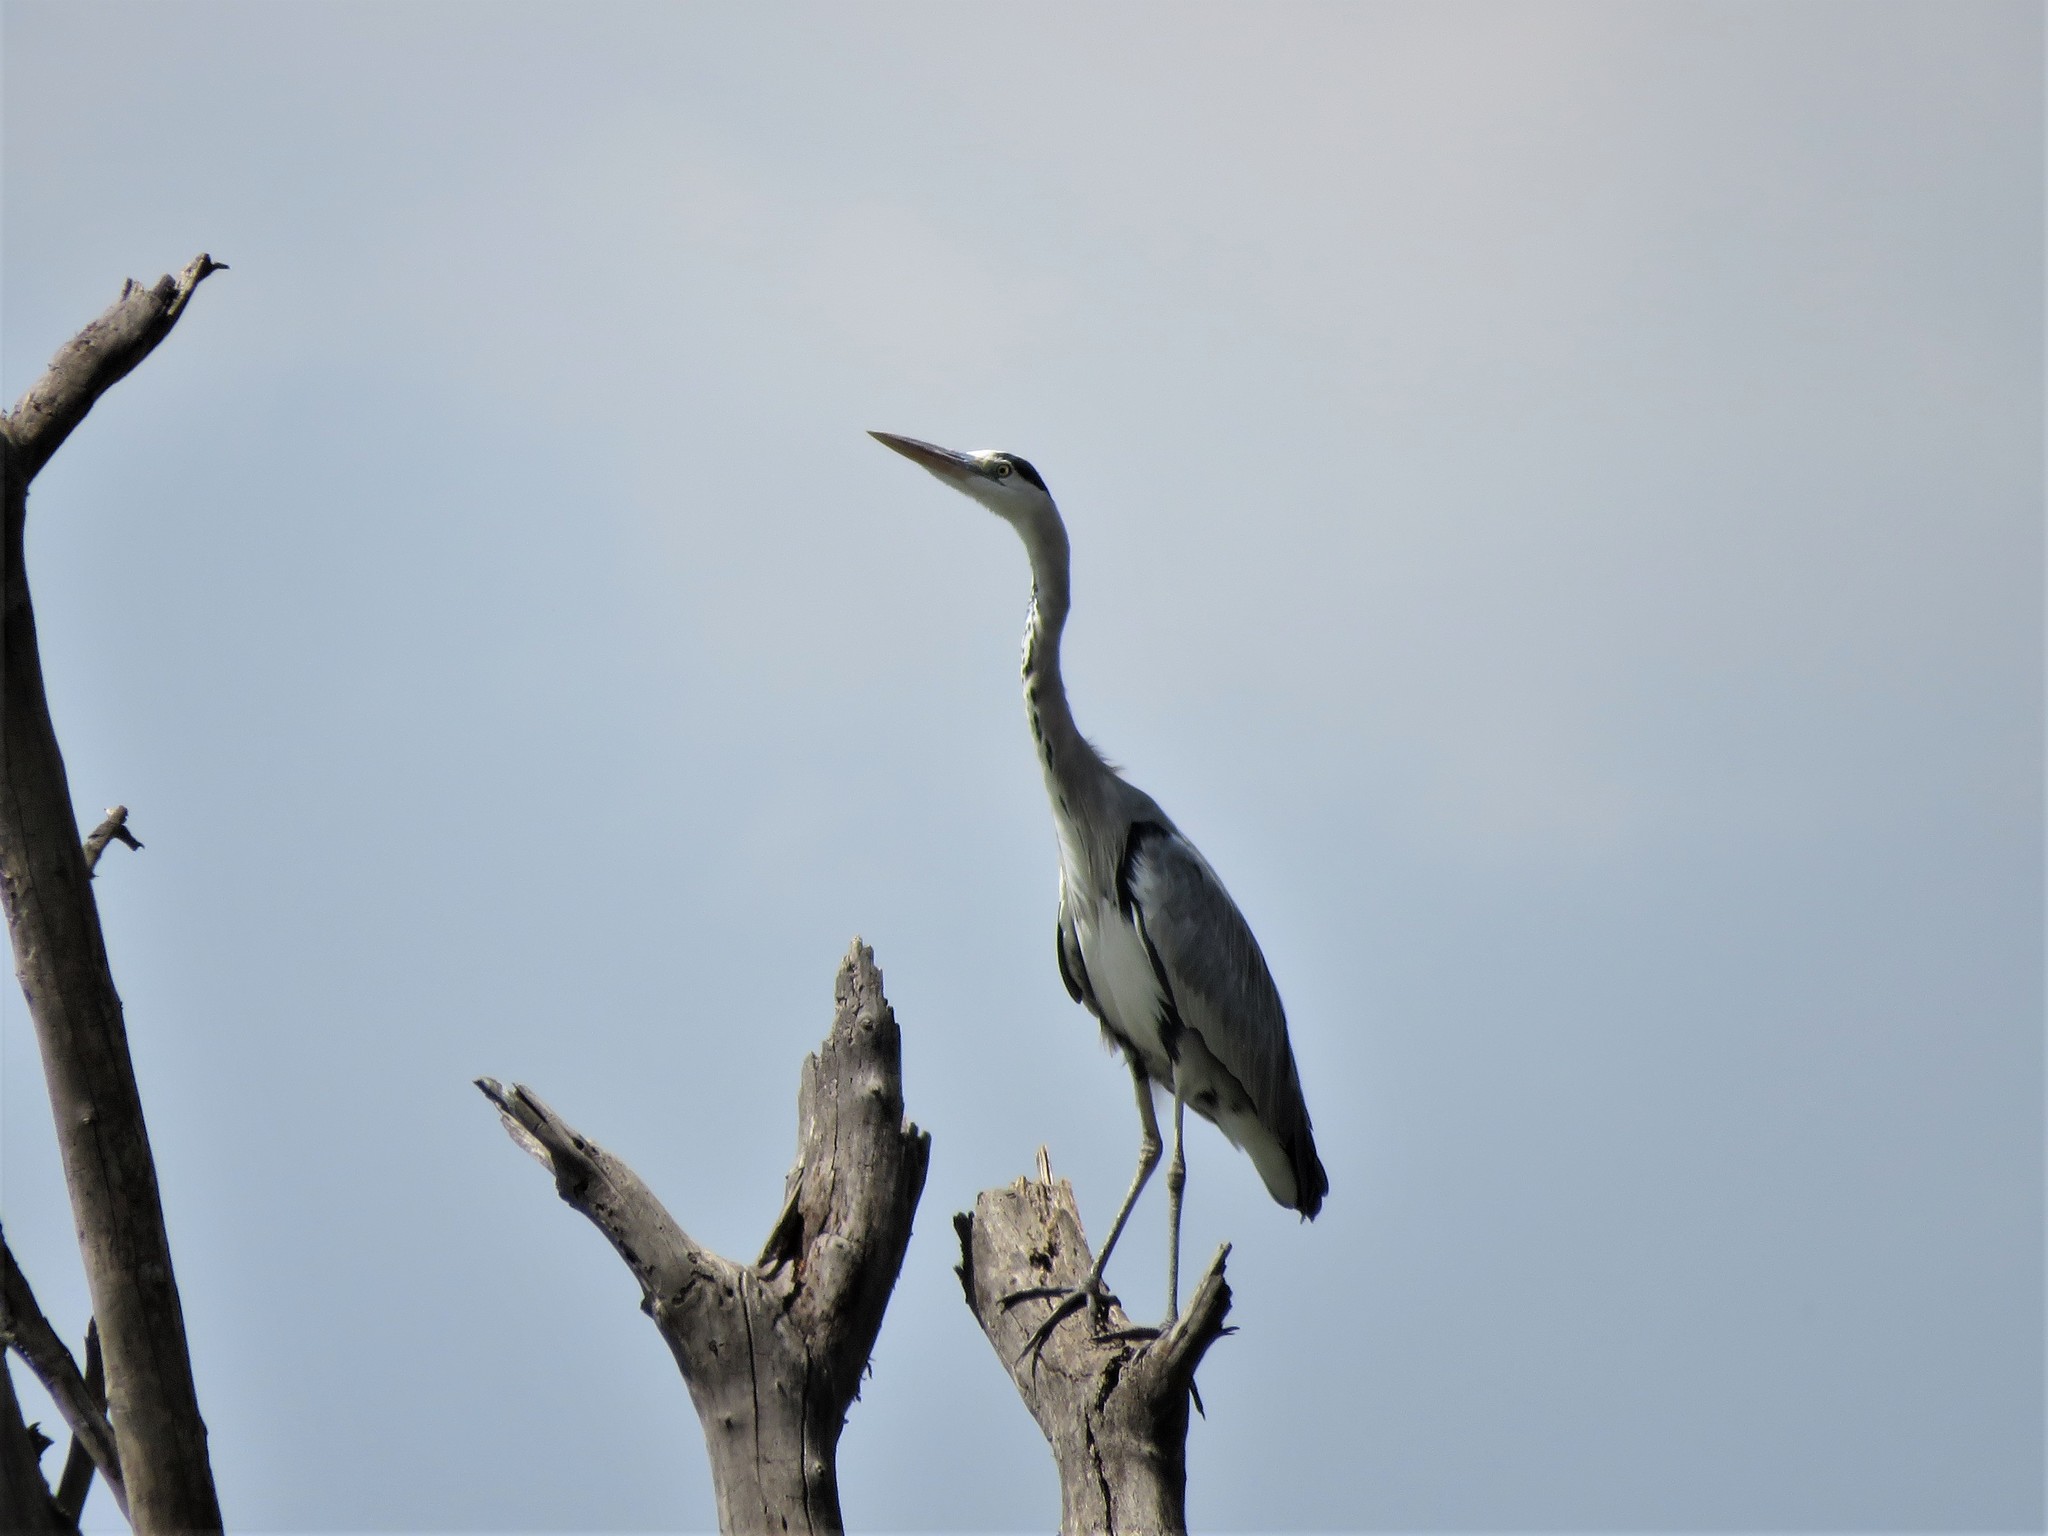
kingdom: Animalia
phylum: Chordata
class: Aves
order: Pelecaniformes
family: Ardeidae
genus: Ardea
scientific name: Ardea cinerea
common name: Grey heron
